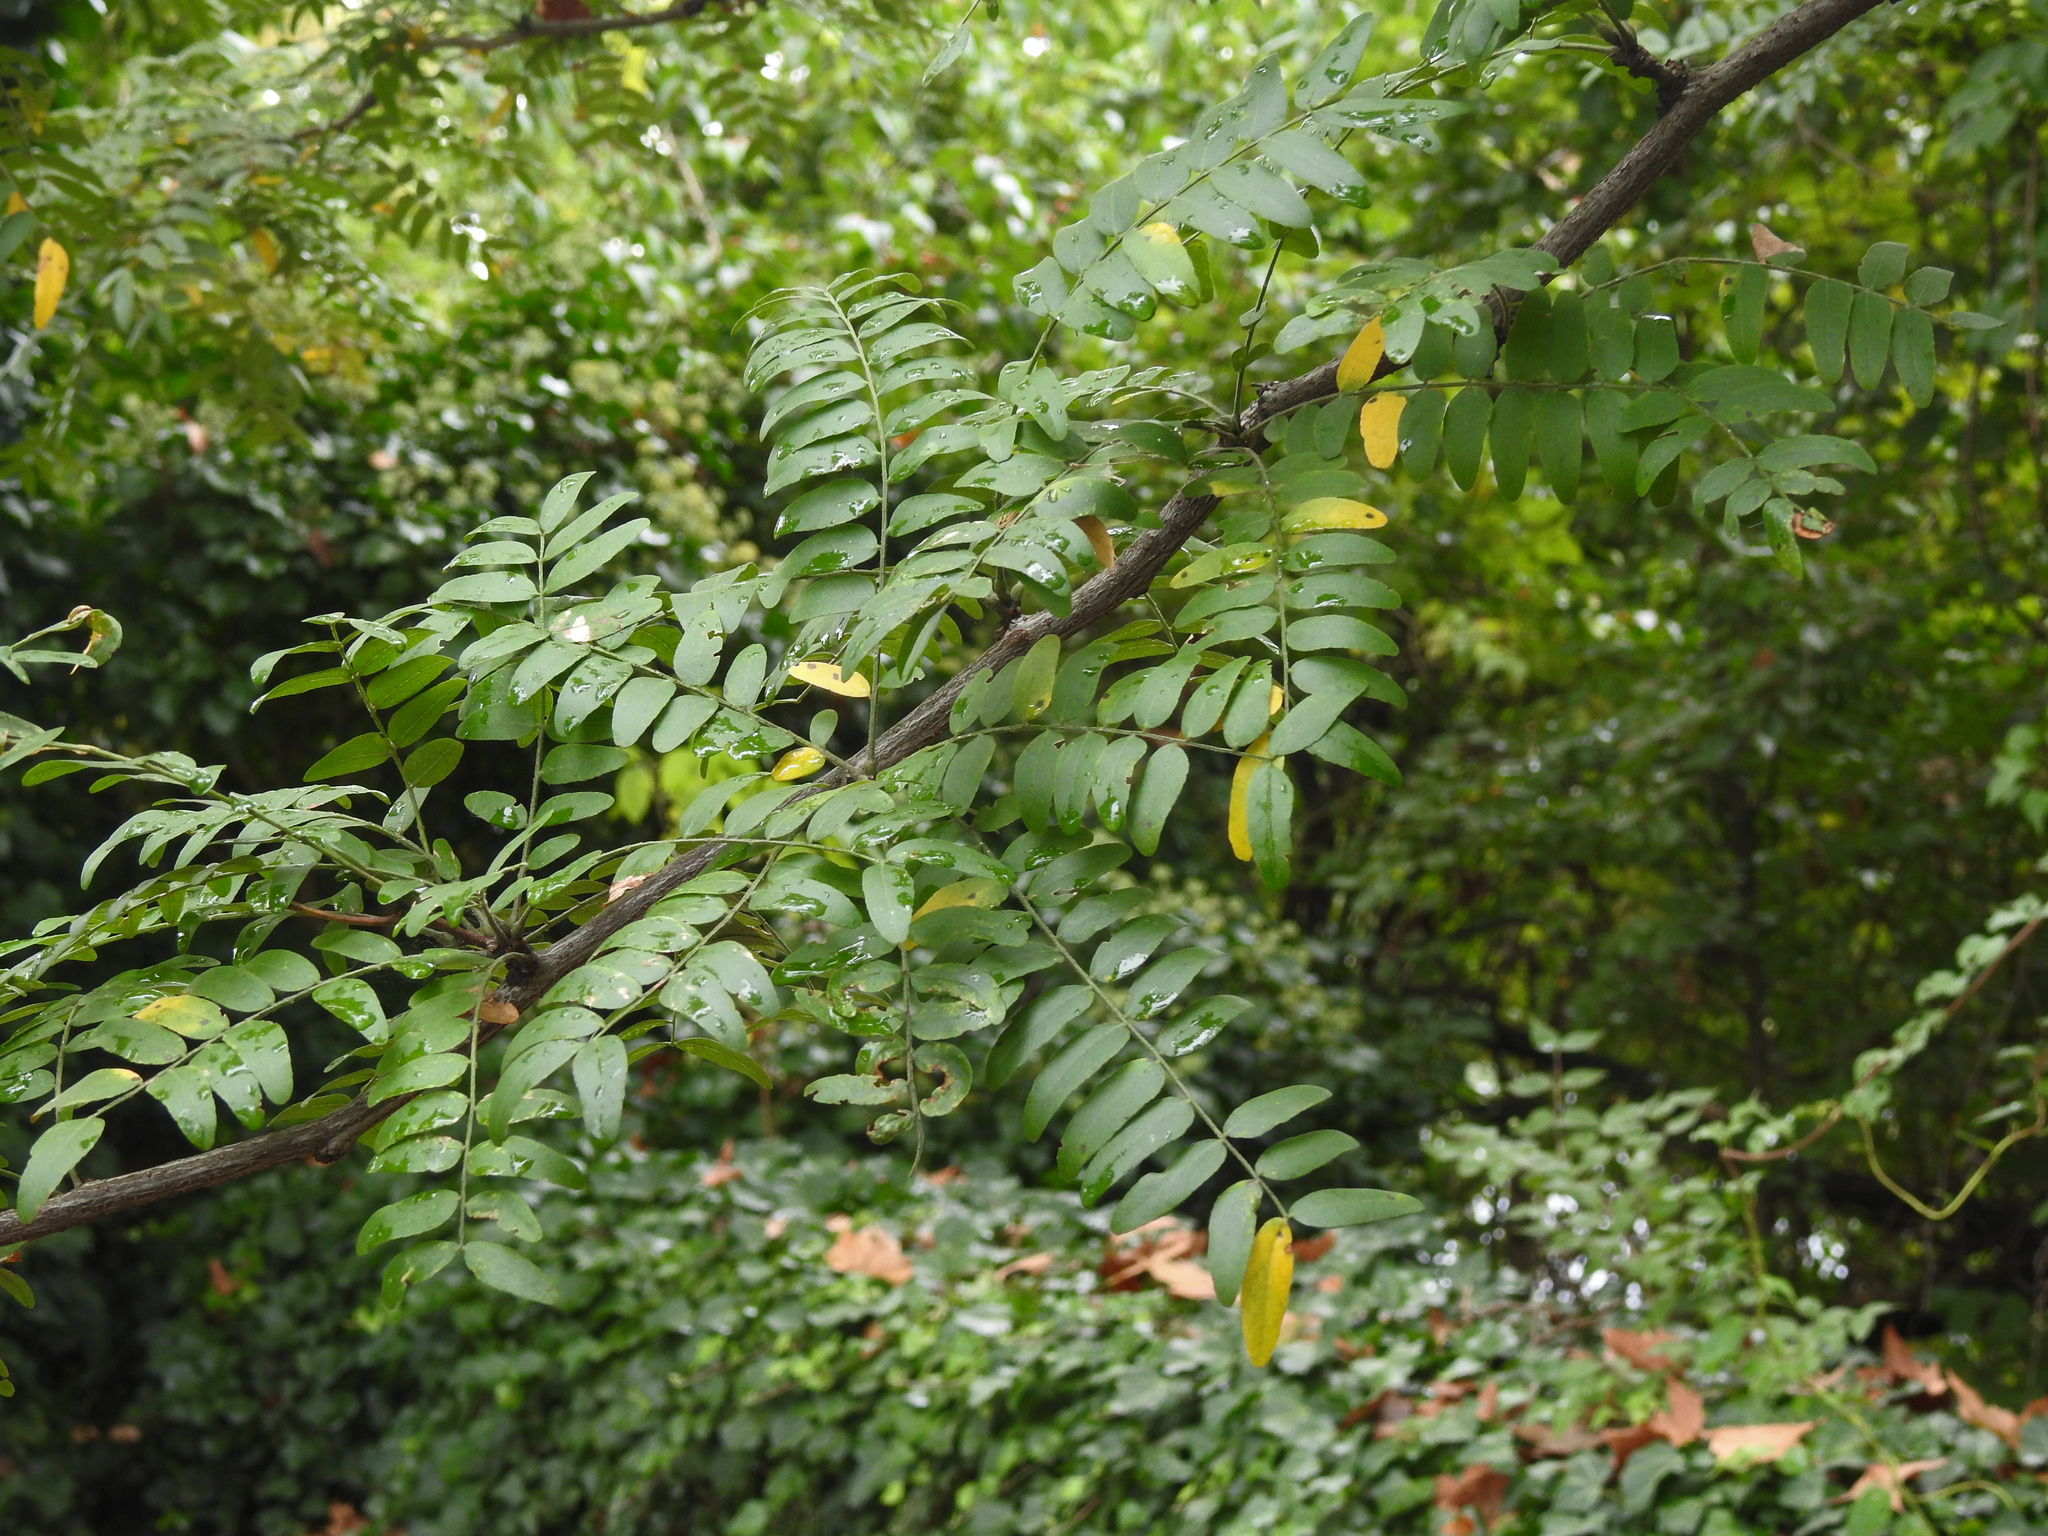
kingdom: Plantae
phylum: Tracheophyta
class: Magnoliopsida
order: Fabales
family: Fabaceae
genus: Gleditsia
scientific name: Gleditsia triacanthos
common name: Common honeylocust
